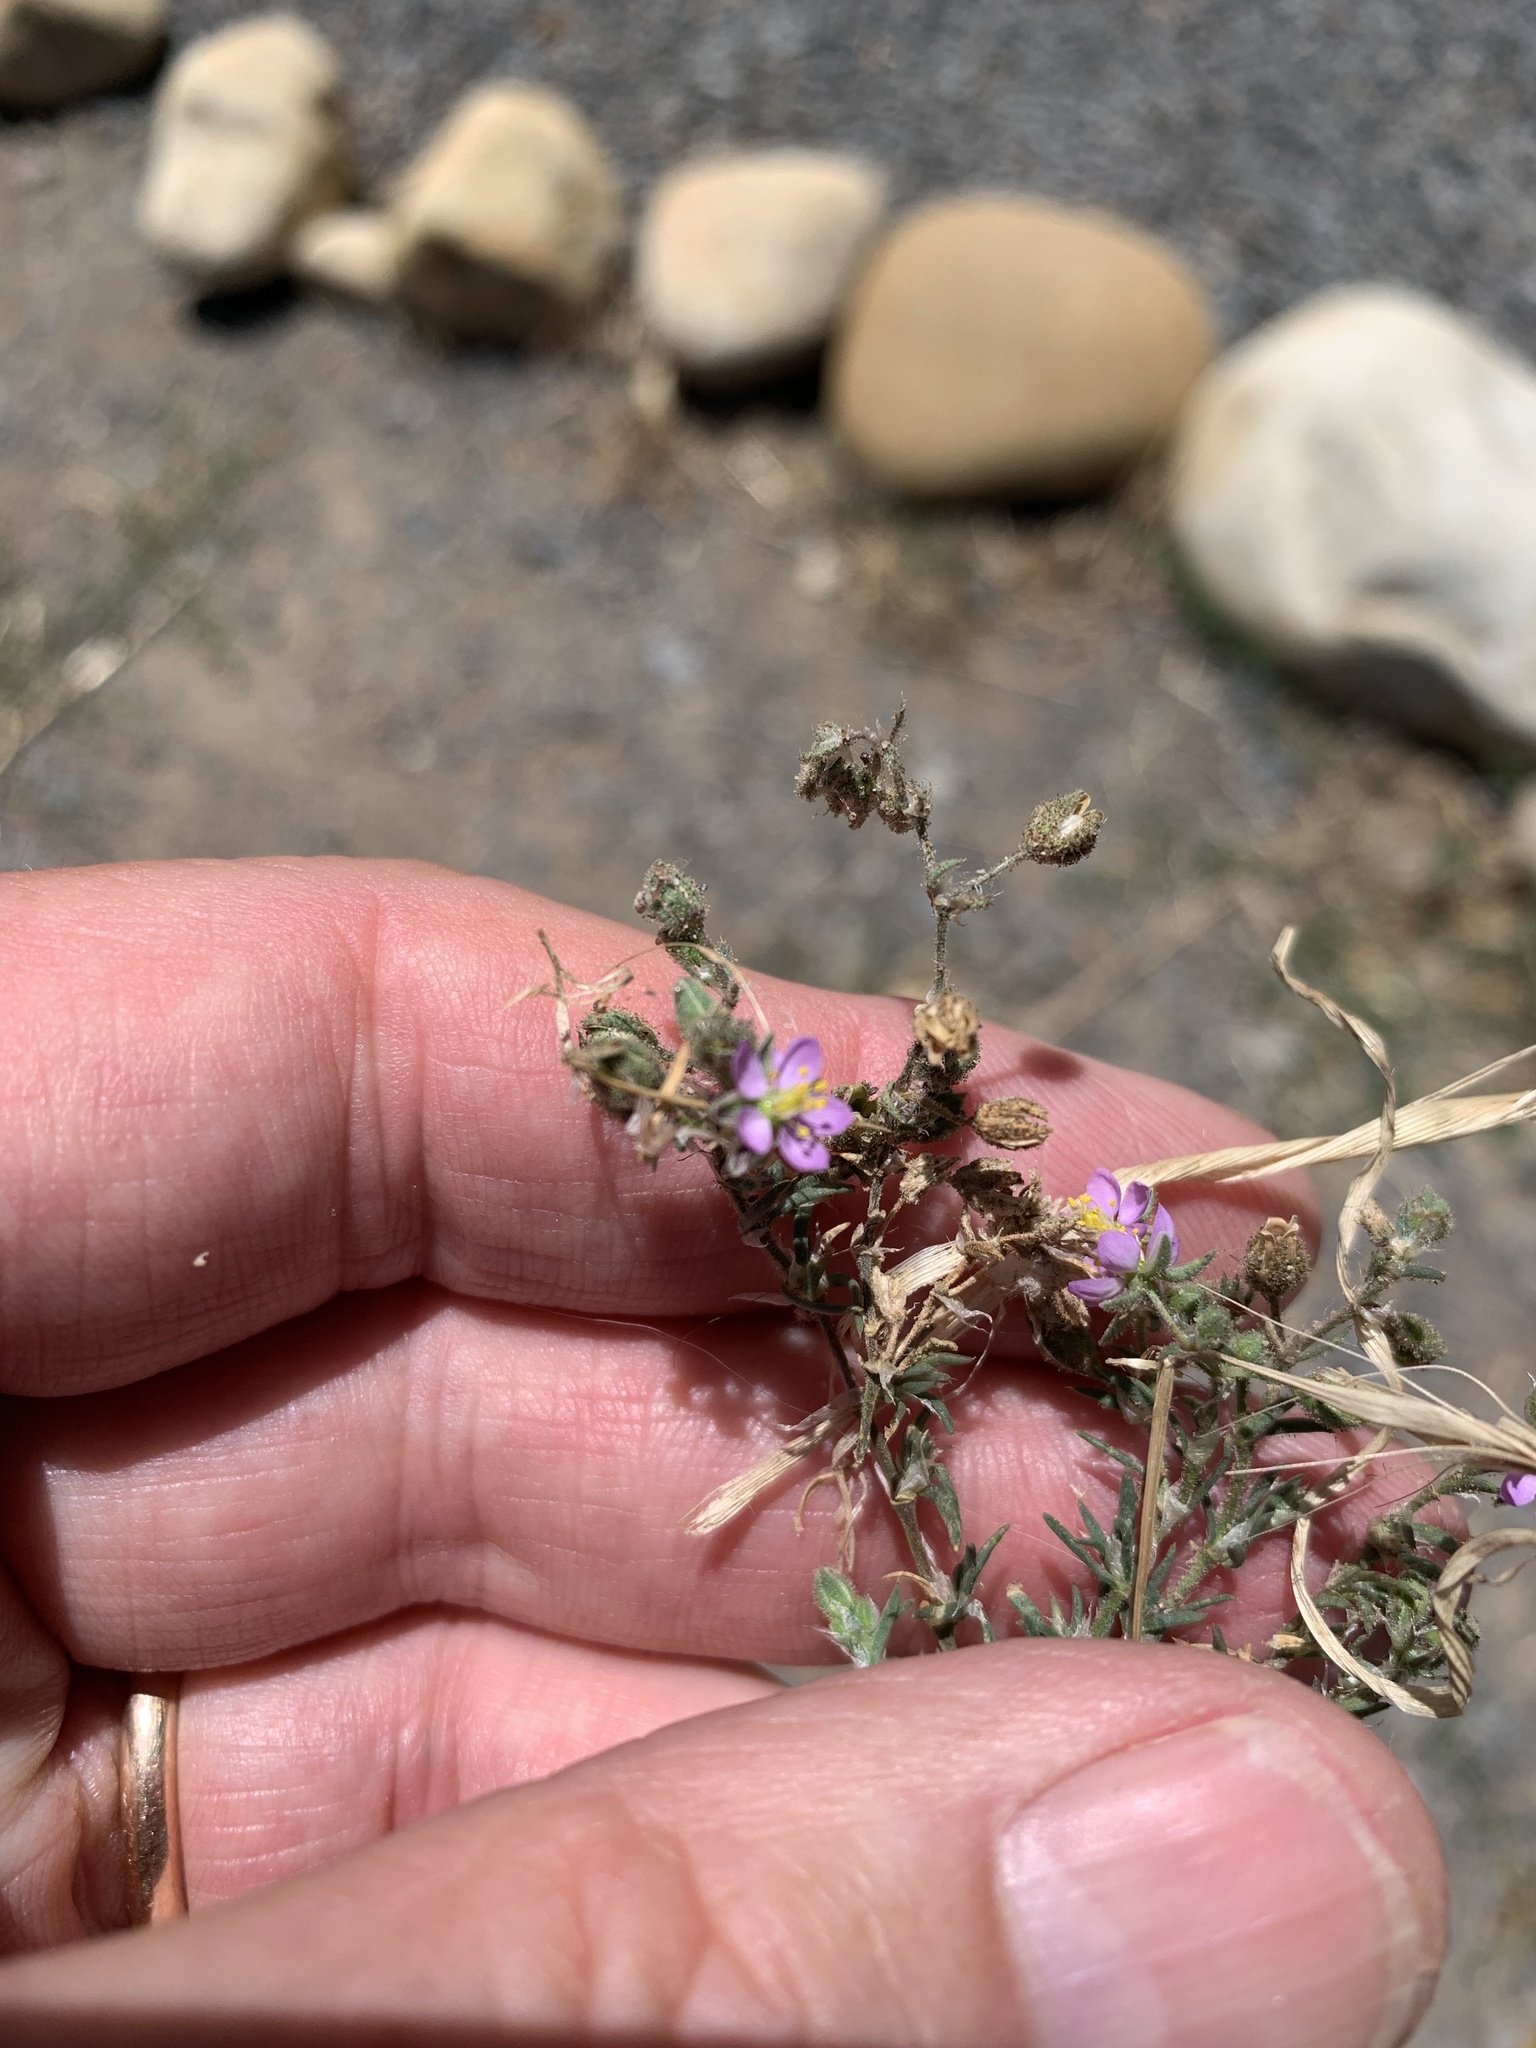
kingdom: Plantae
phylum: Tracheophyta
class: Magnoliopsida
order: Caryophyllales
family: Caryophyllaceae
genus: Spergularia
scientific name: Spergularia rubra
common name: Red sand-spurrey
